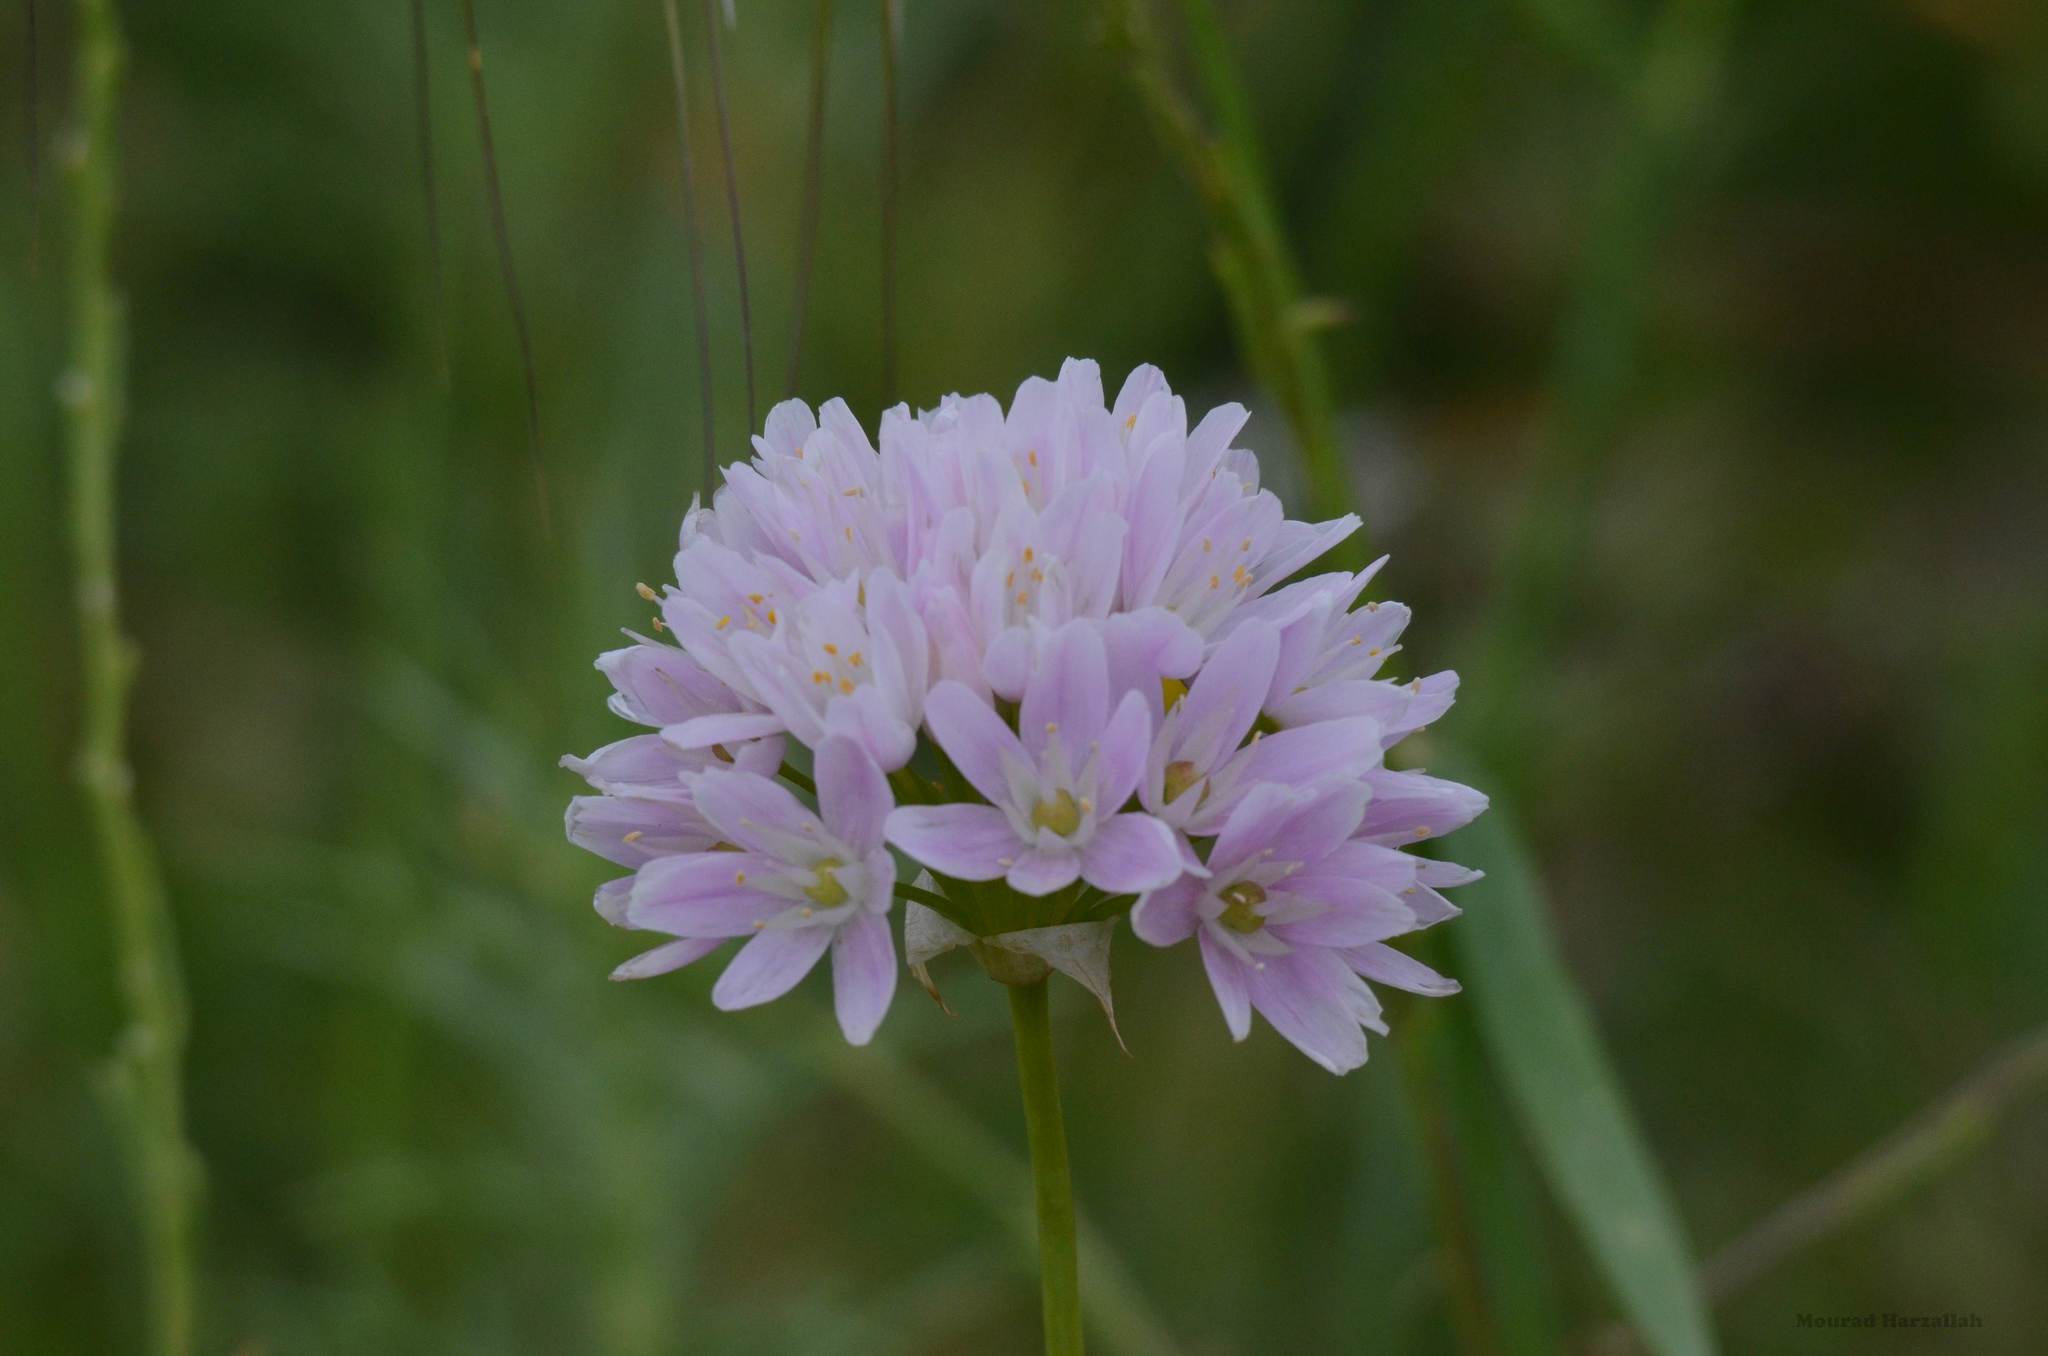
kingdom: Plantae
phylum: Tracheophyta
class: Liliopsida
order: Asparagales
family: Amaryllidaceae
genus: Allium
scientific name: Allium roseum
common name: Rosy garlic
